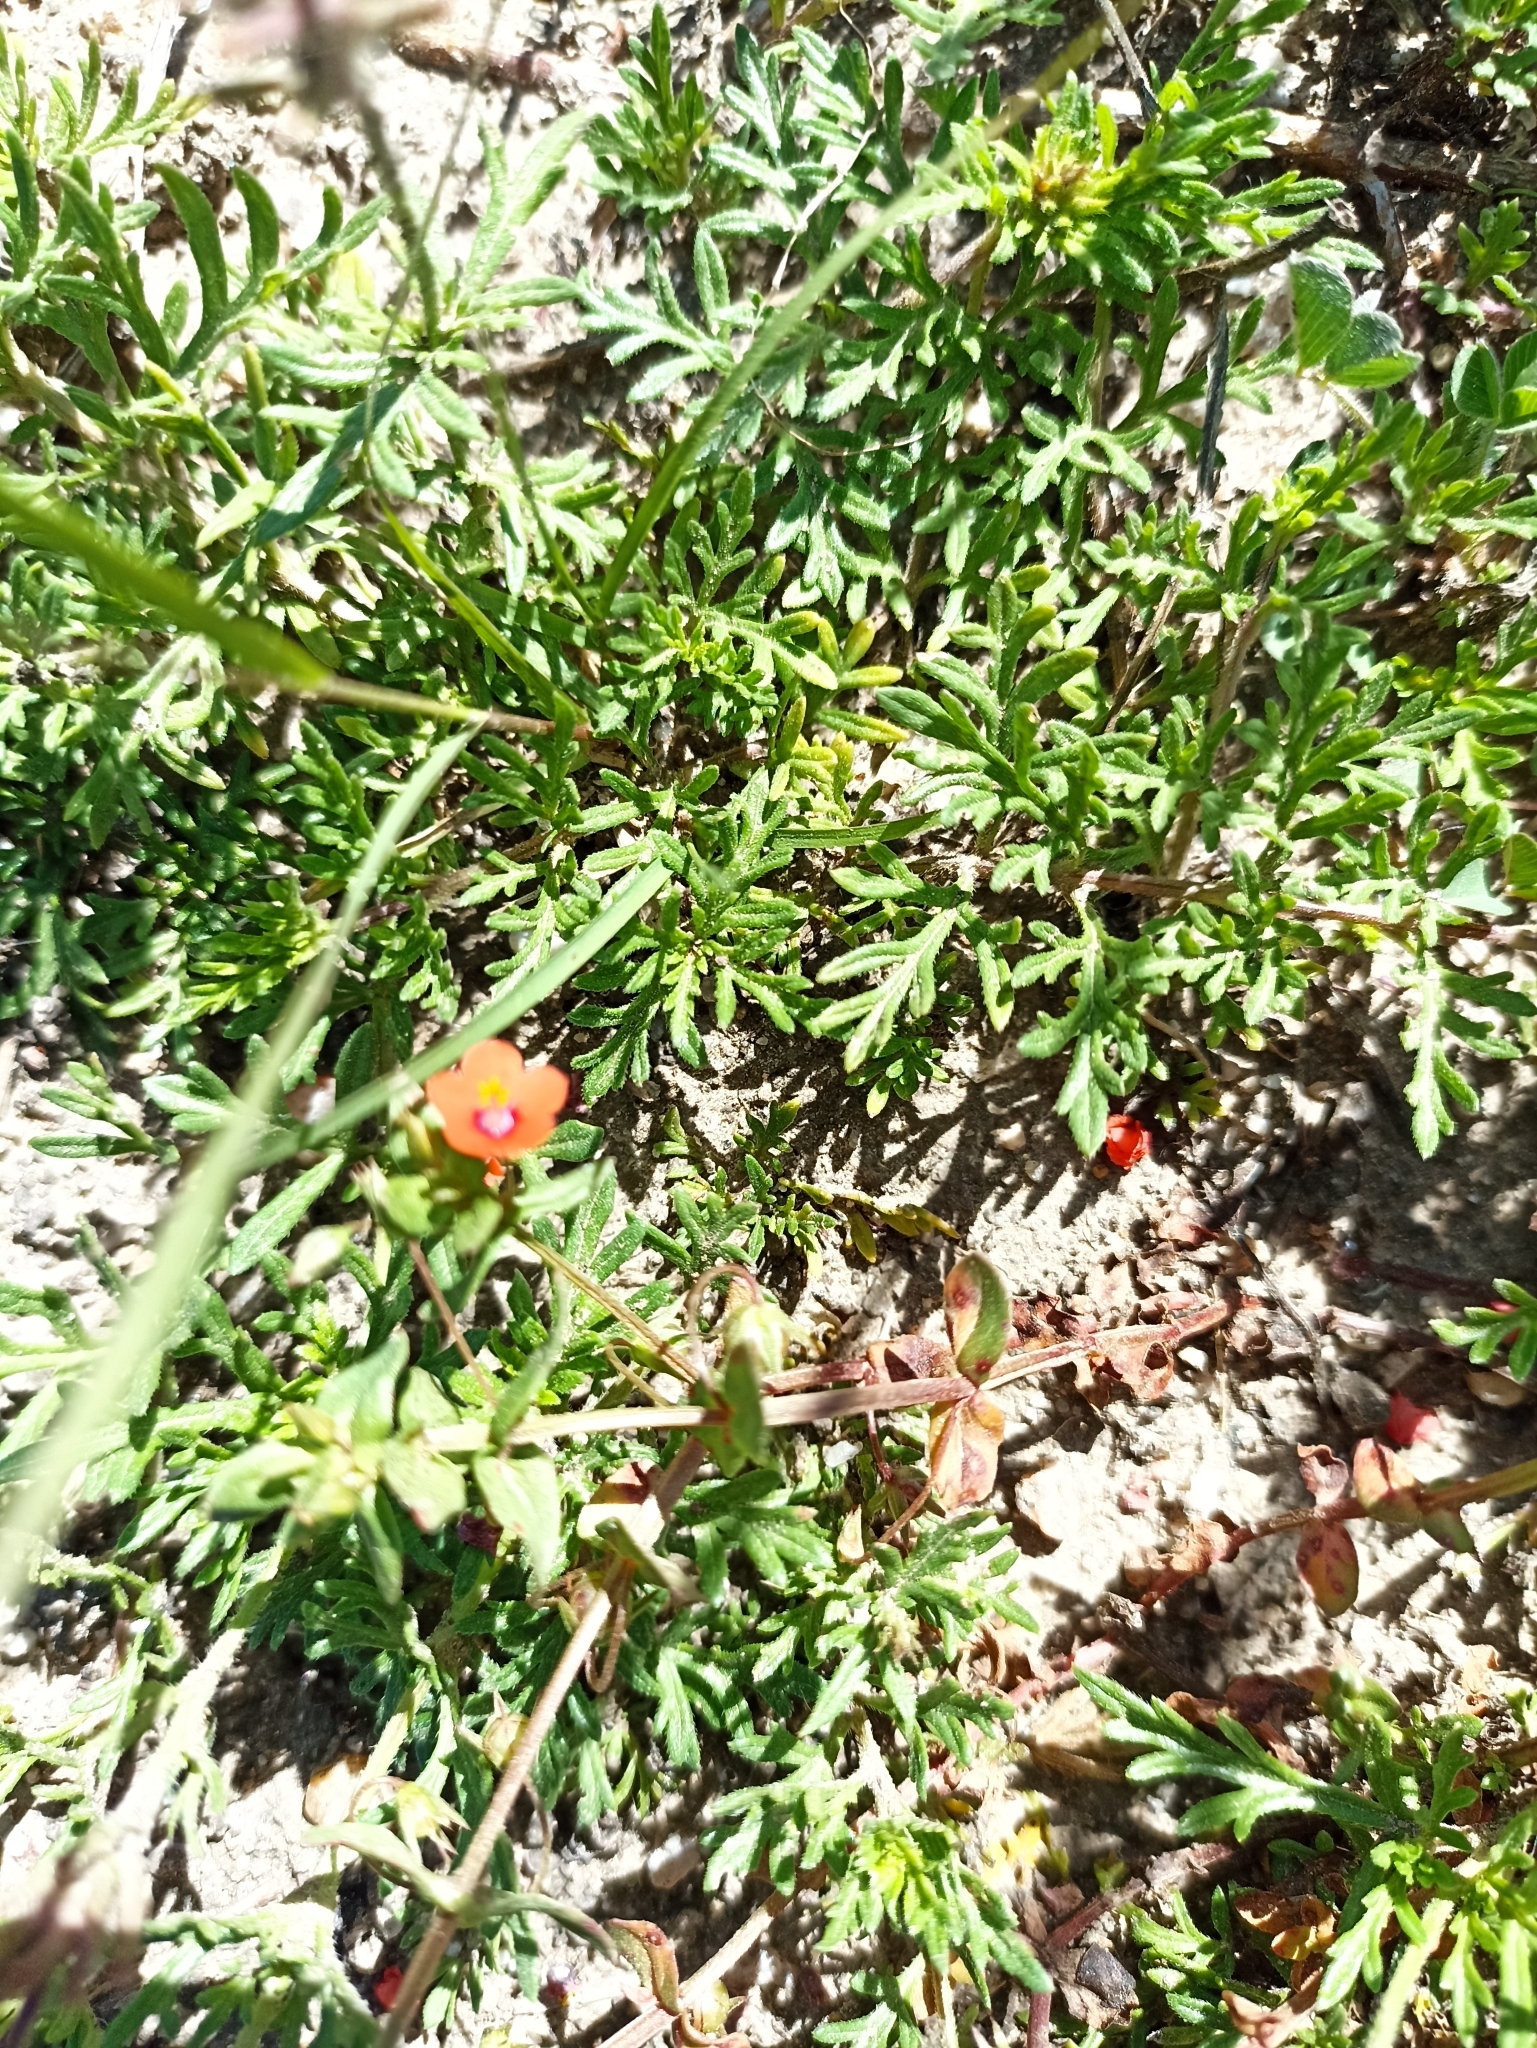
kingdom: Plantae
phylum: Tracheophyta
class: Magnoliopsida
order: Ericales
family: Primulaceae
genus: Lysimachia
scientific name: Lysimachia arvensis
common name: Scarlet pimpernel
